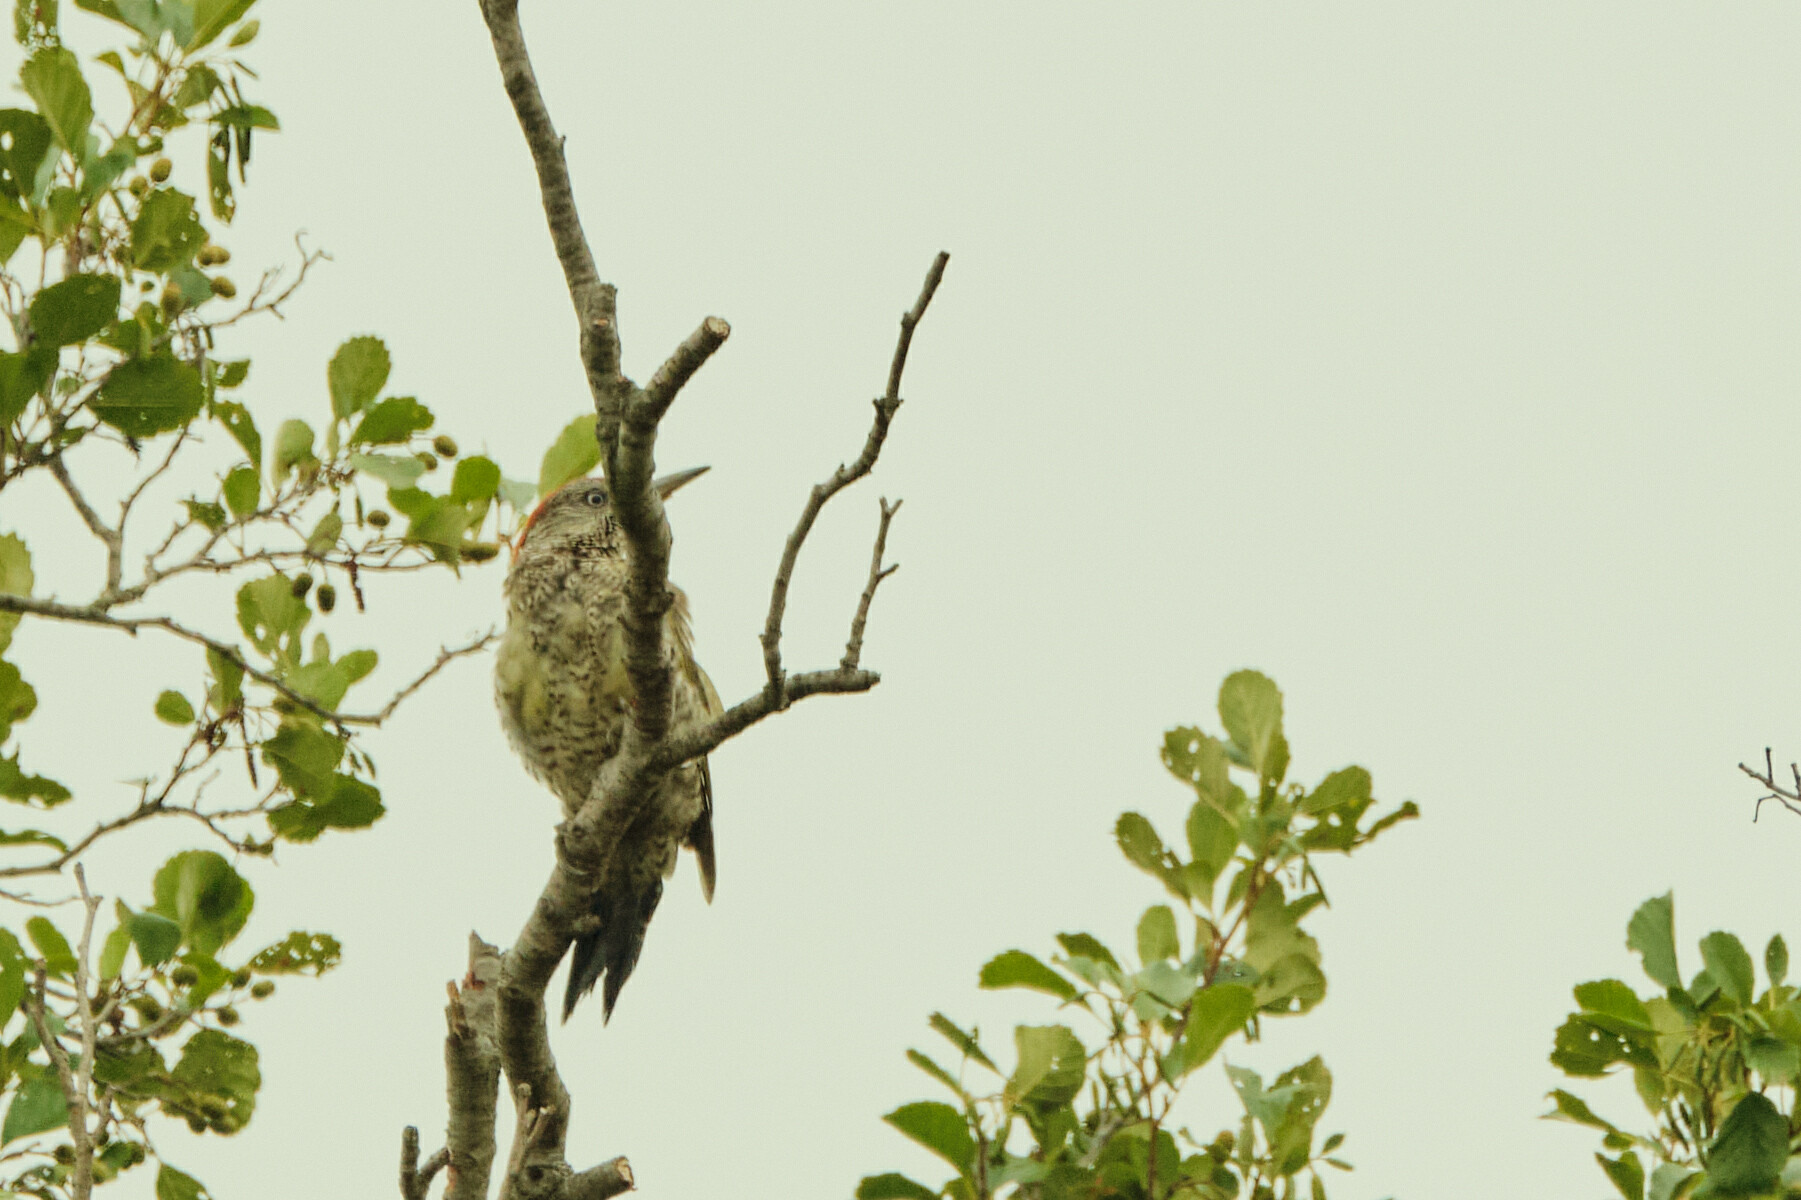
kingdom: Animalia
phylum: Chordata
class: Aves
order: Piciformes
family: Picidae
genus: Picus
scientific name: Picus viridis
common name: European green woodpecker
